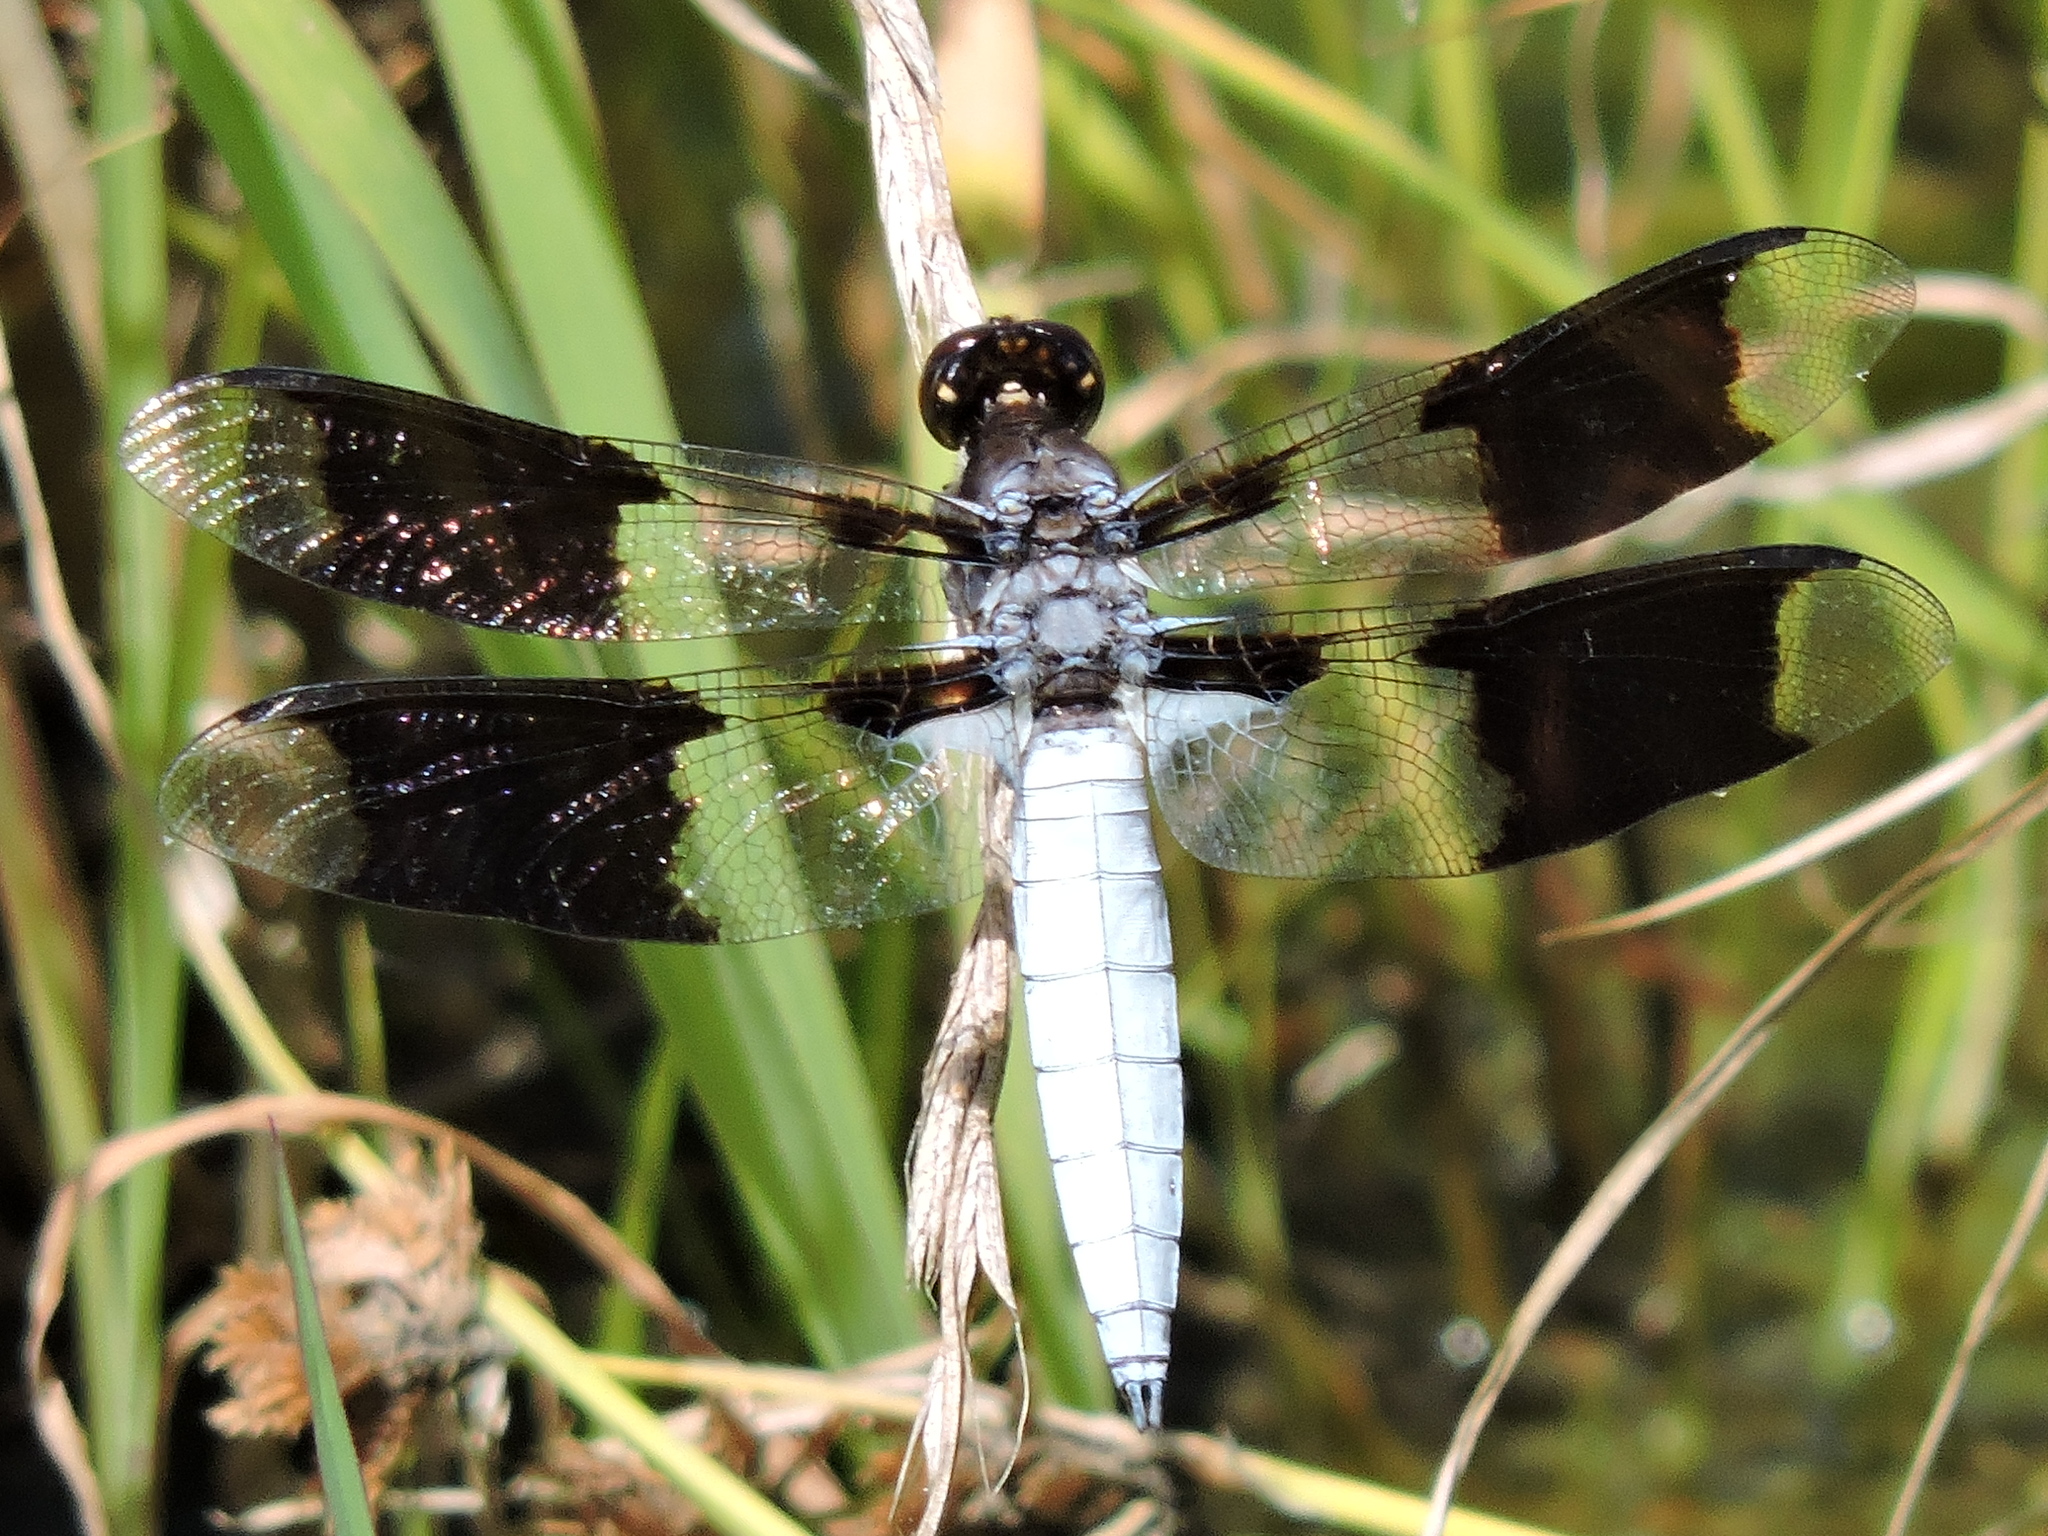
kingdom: Animalia
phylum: Arthropoda
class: Insecta
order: Odonata
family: Libellulidae
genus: Plathemis
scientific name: Plathemis lydia
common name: Common whitetail
